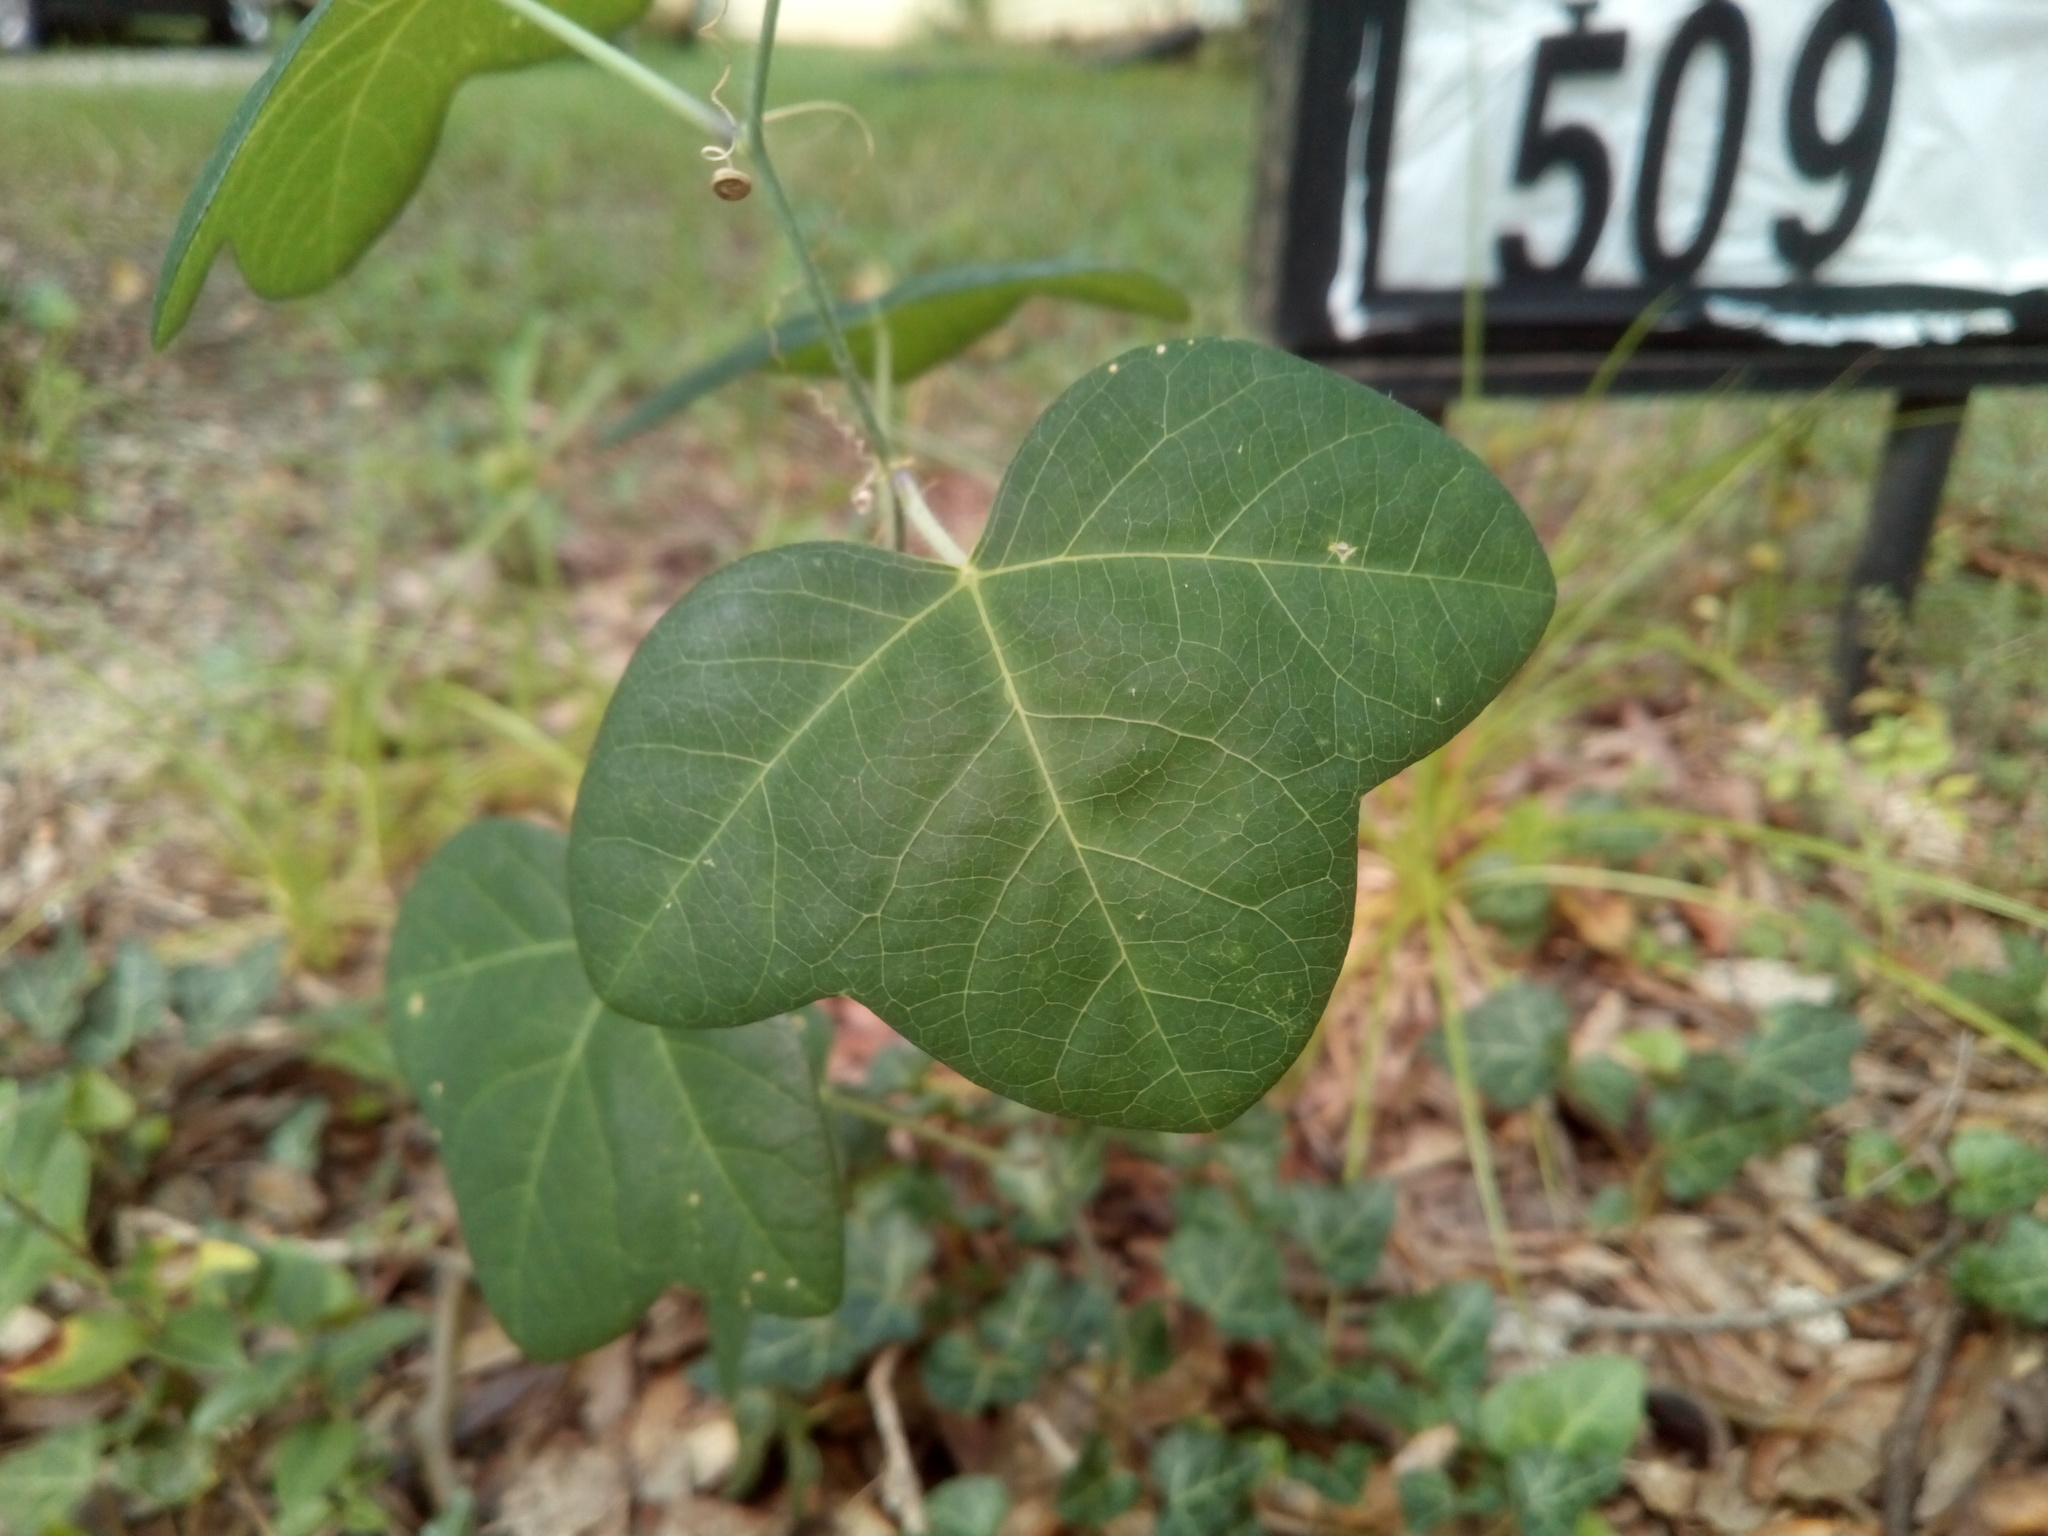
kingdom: Plantae
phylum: Tracheophyta
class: Magnoliopsida
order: Malpighiales
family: Passifloraceae
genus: Passiflora
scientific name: Passiflora lutea
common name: Yellow passionflower
